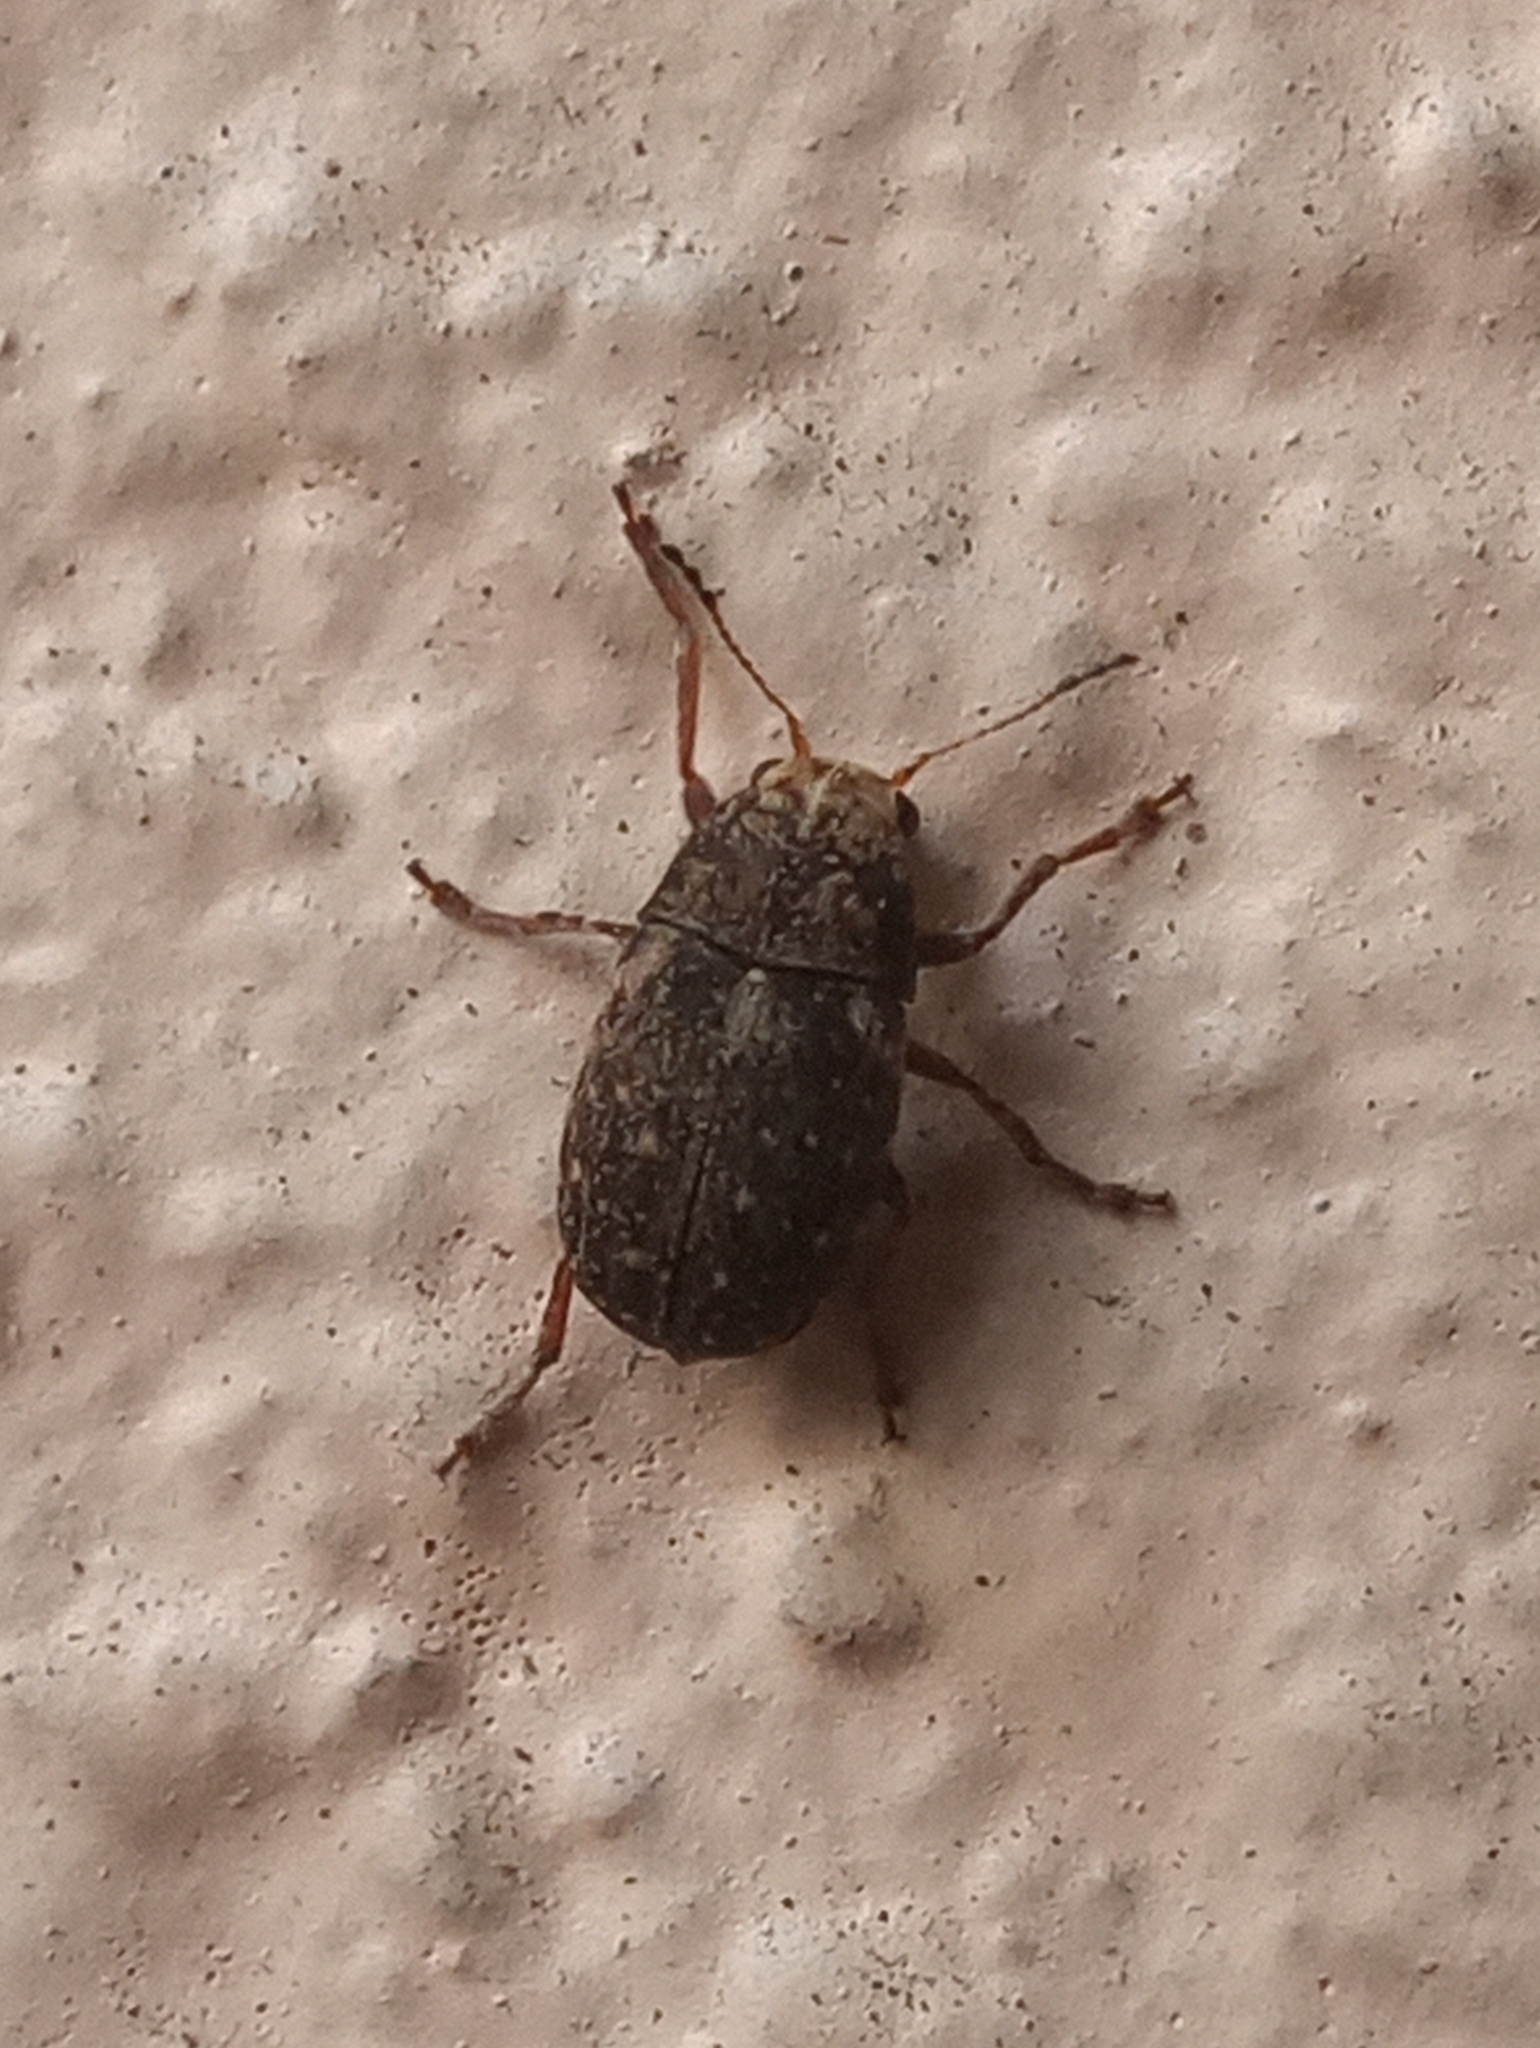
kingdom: Animalia
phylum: Arthropoda
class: Insecta
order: Coleoptera
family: Anthribidae
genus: Araecerus
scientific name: Araecerus fasciculatus
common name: Coffee bean weevil
